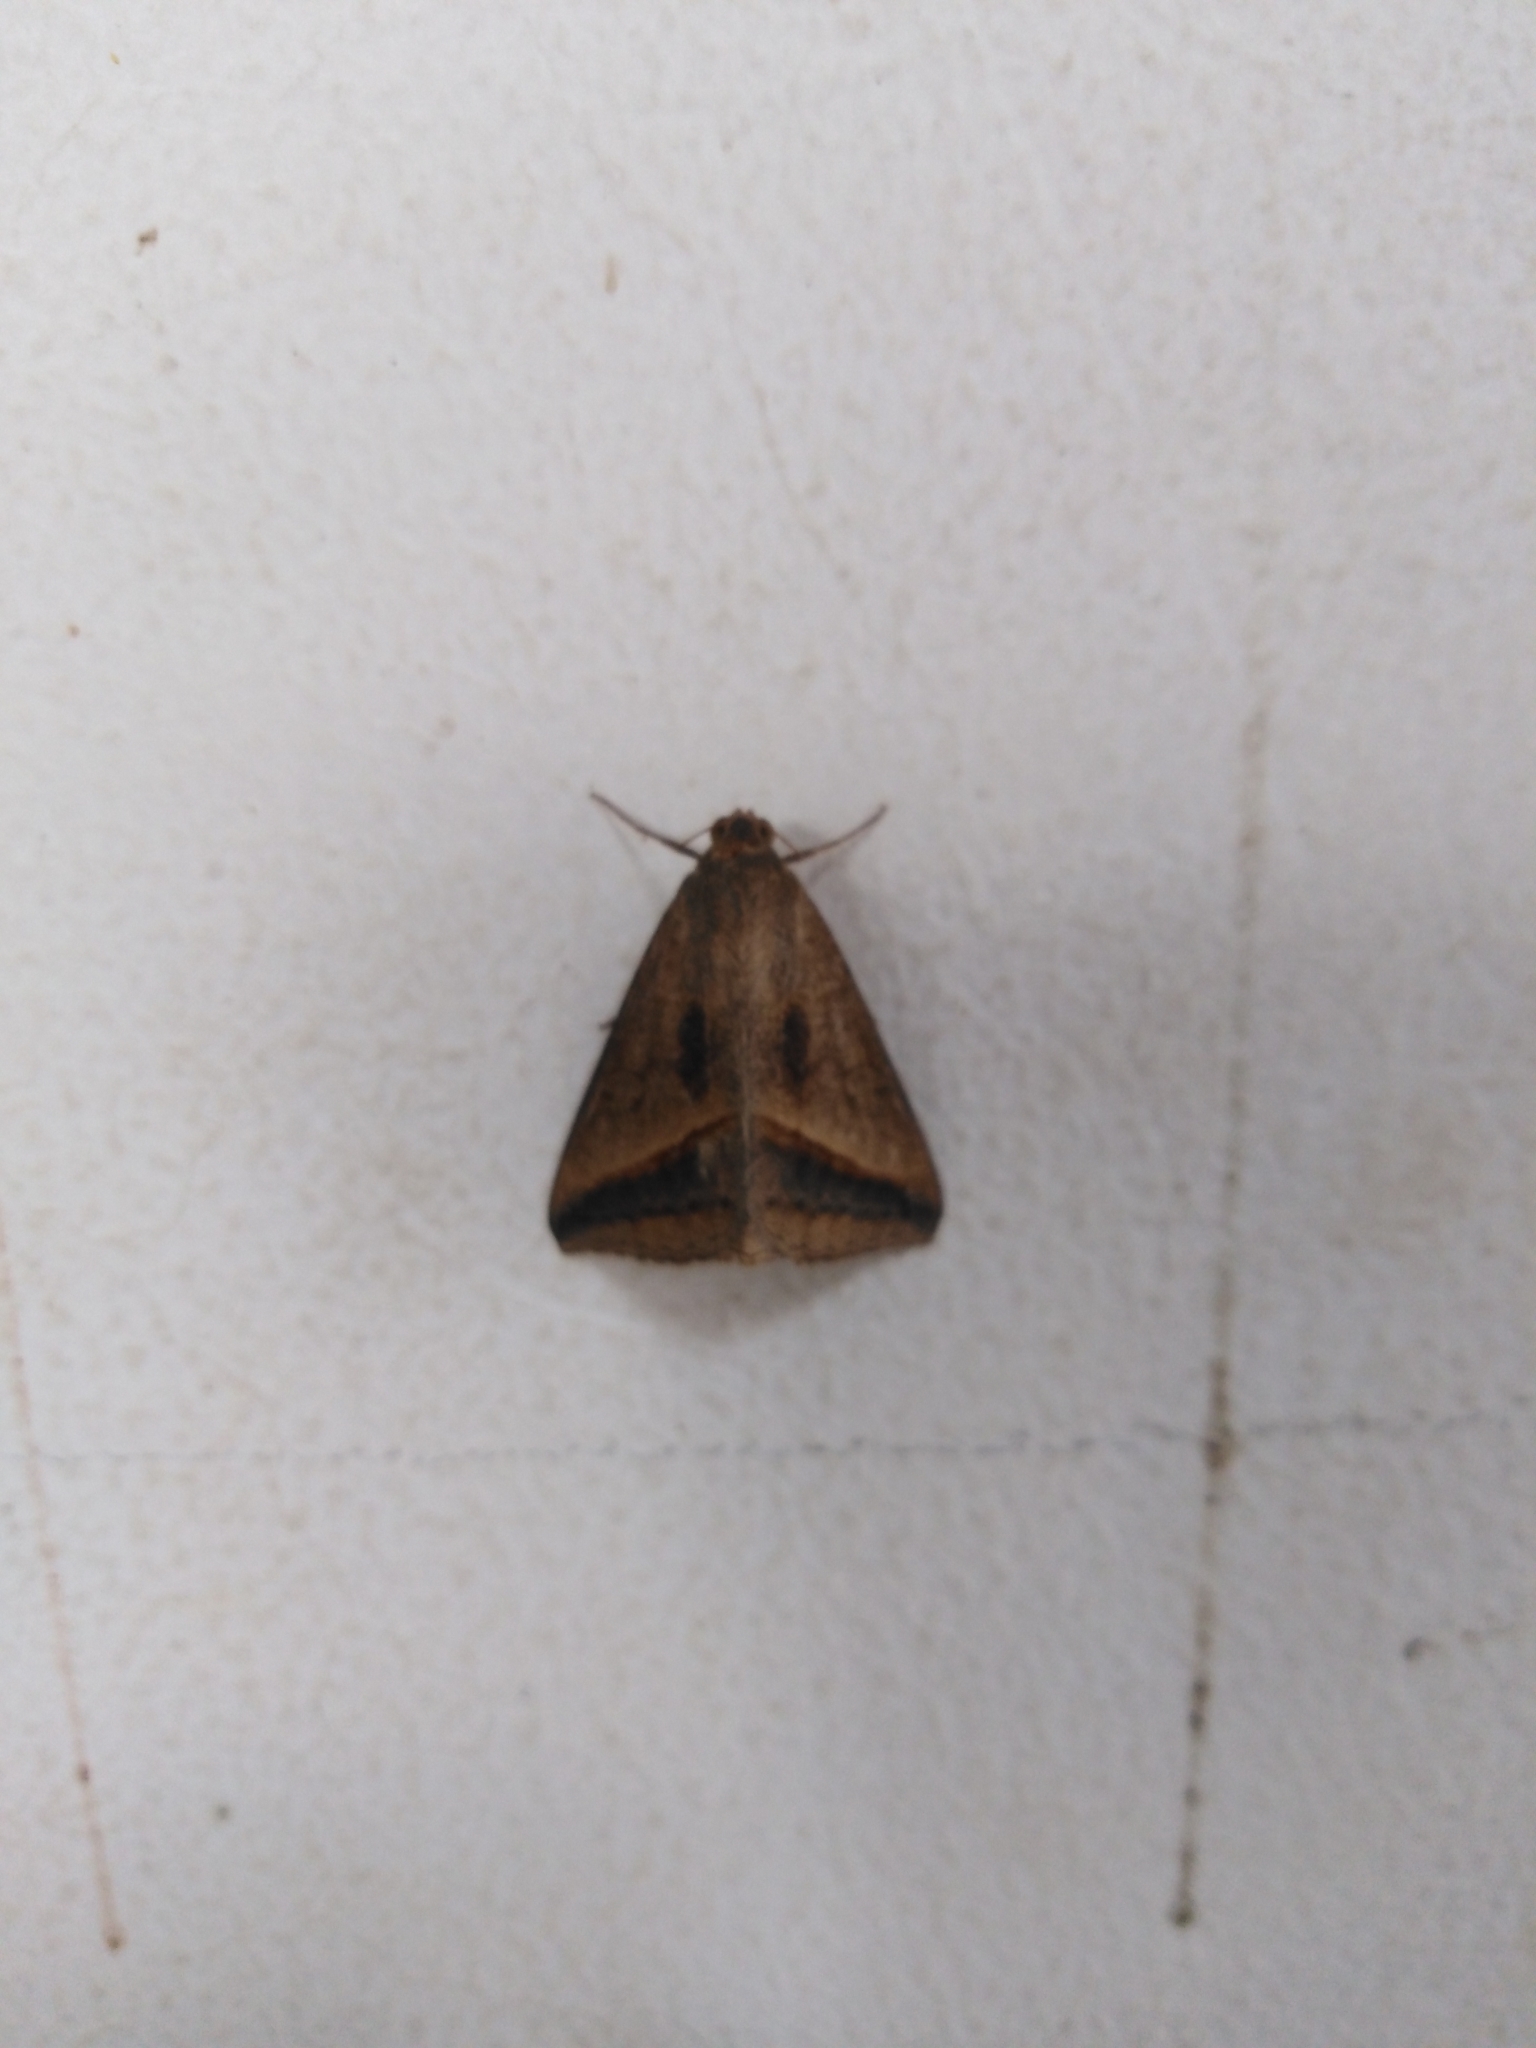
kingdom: Animalia
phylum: Arthropoda
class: Insecta
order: Lepidoptera
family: Erebidae
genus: Mocis
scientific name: Mocis frugalis
